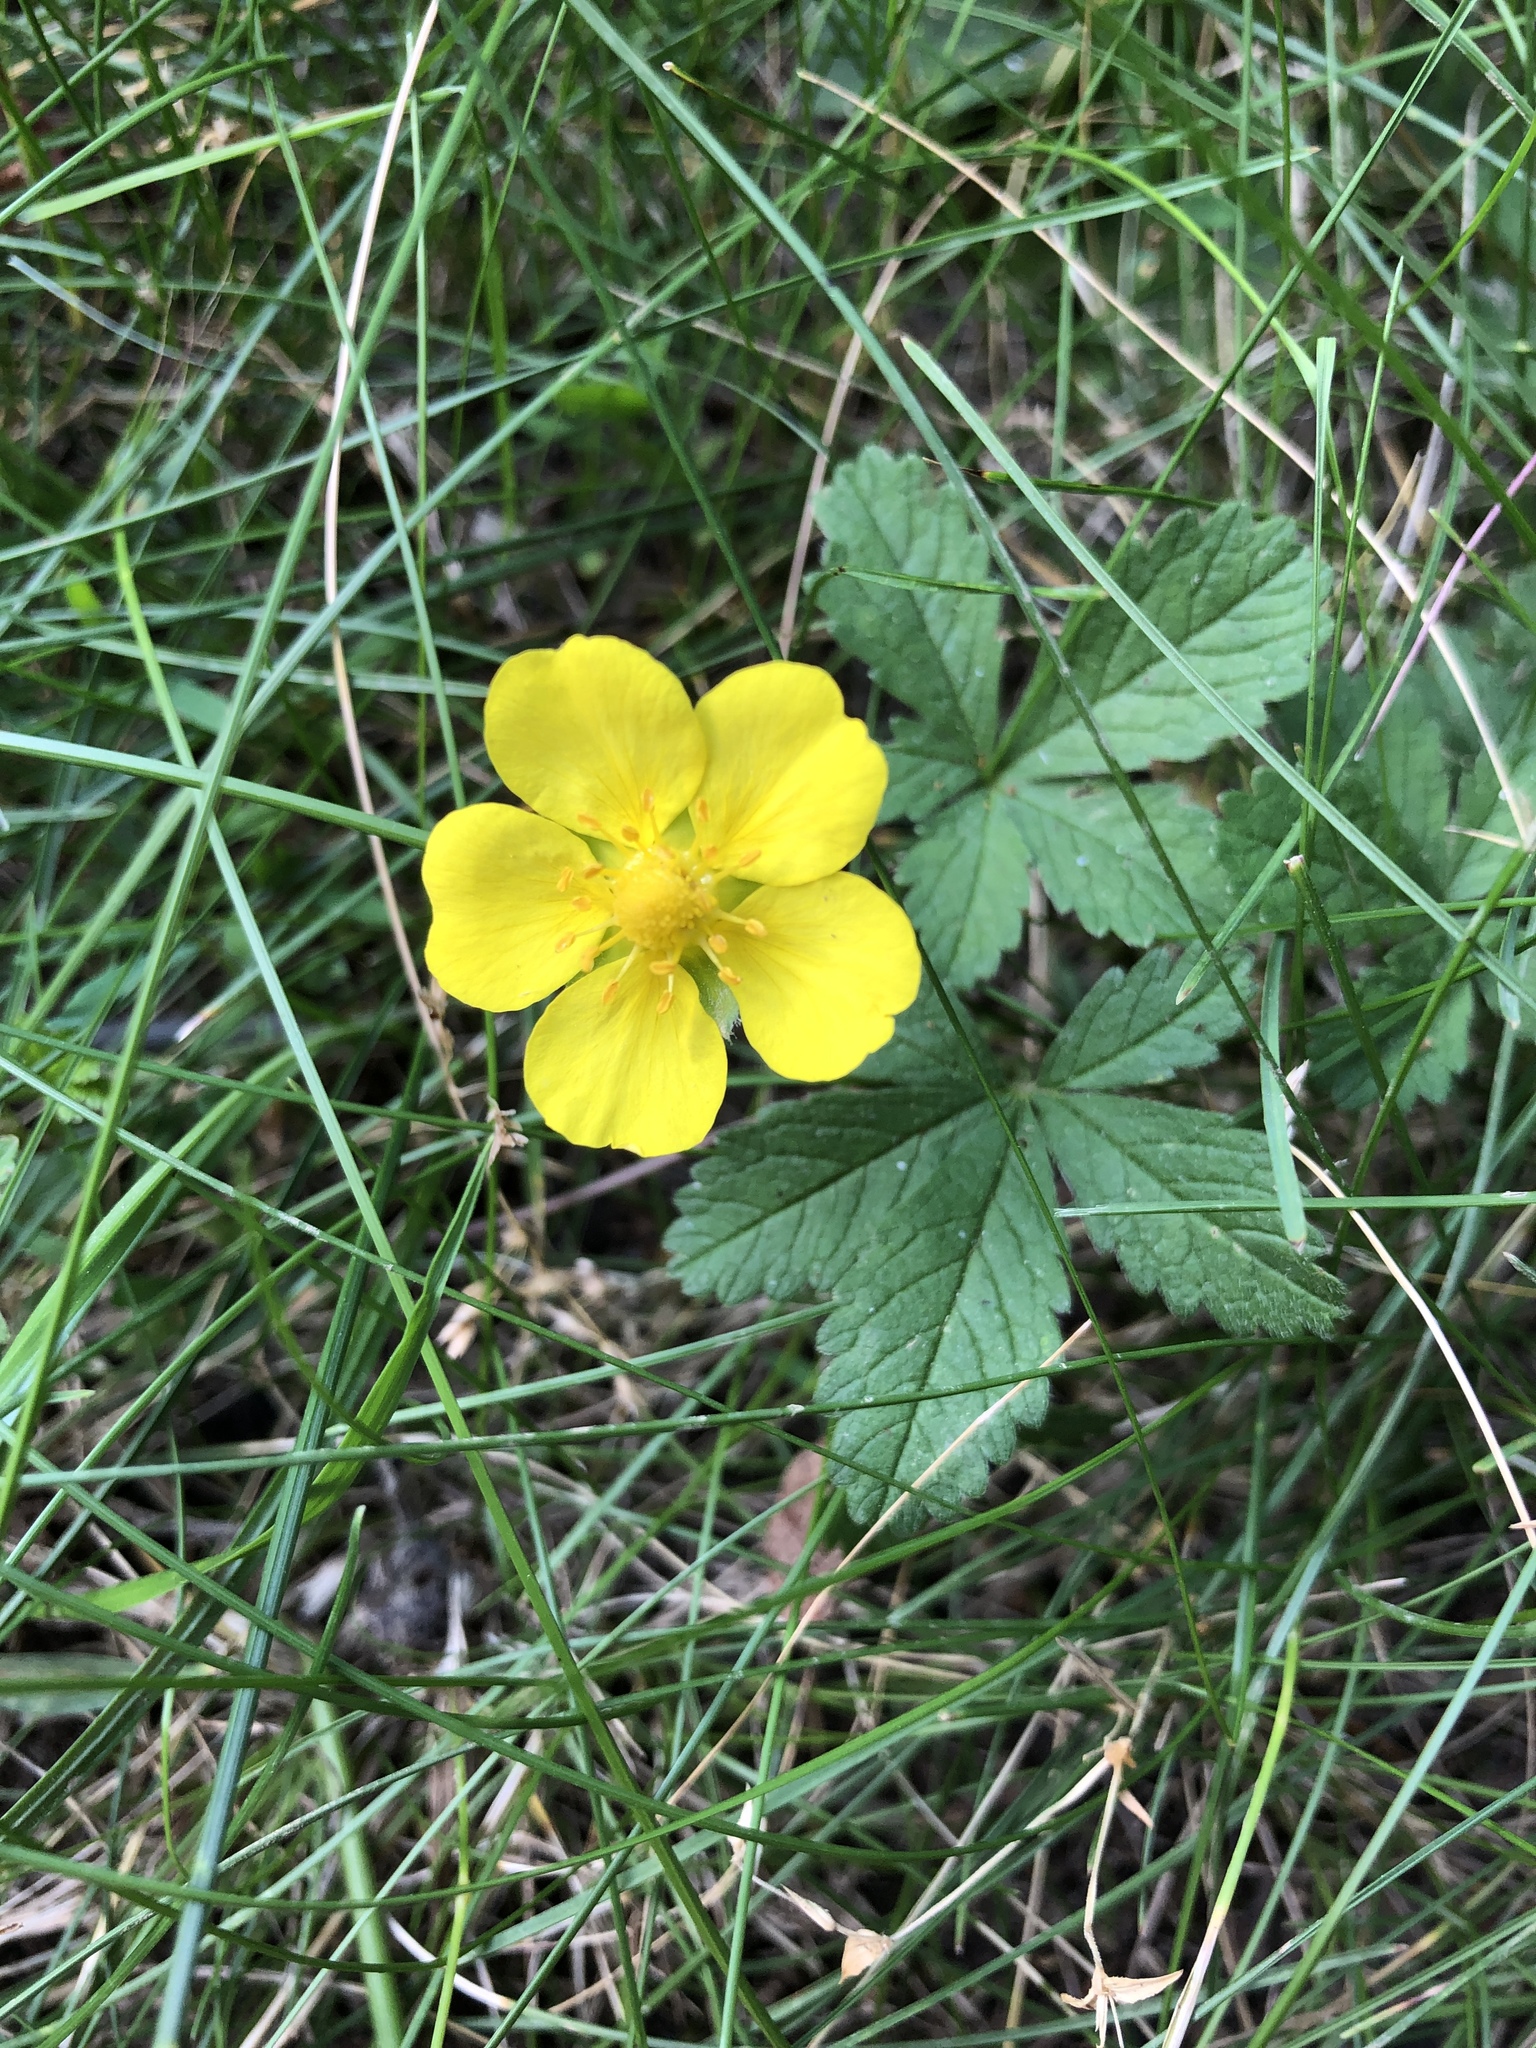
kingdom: Plantae
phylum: Tracheophyta
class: Magnoliopsida
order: Rosales
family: Rosaceae
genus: Potentilla
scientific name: Potentilla reptans
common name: Creeping cinquefoil
